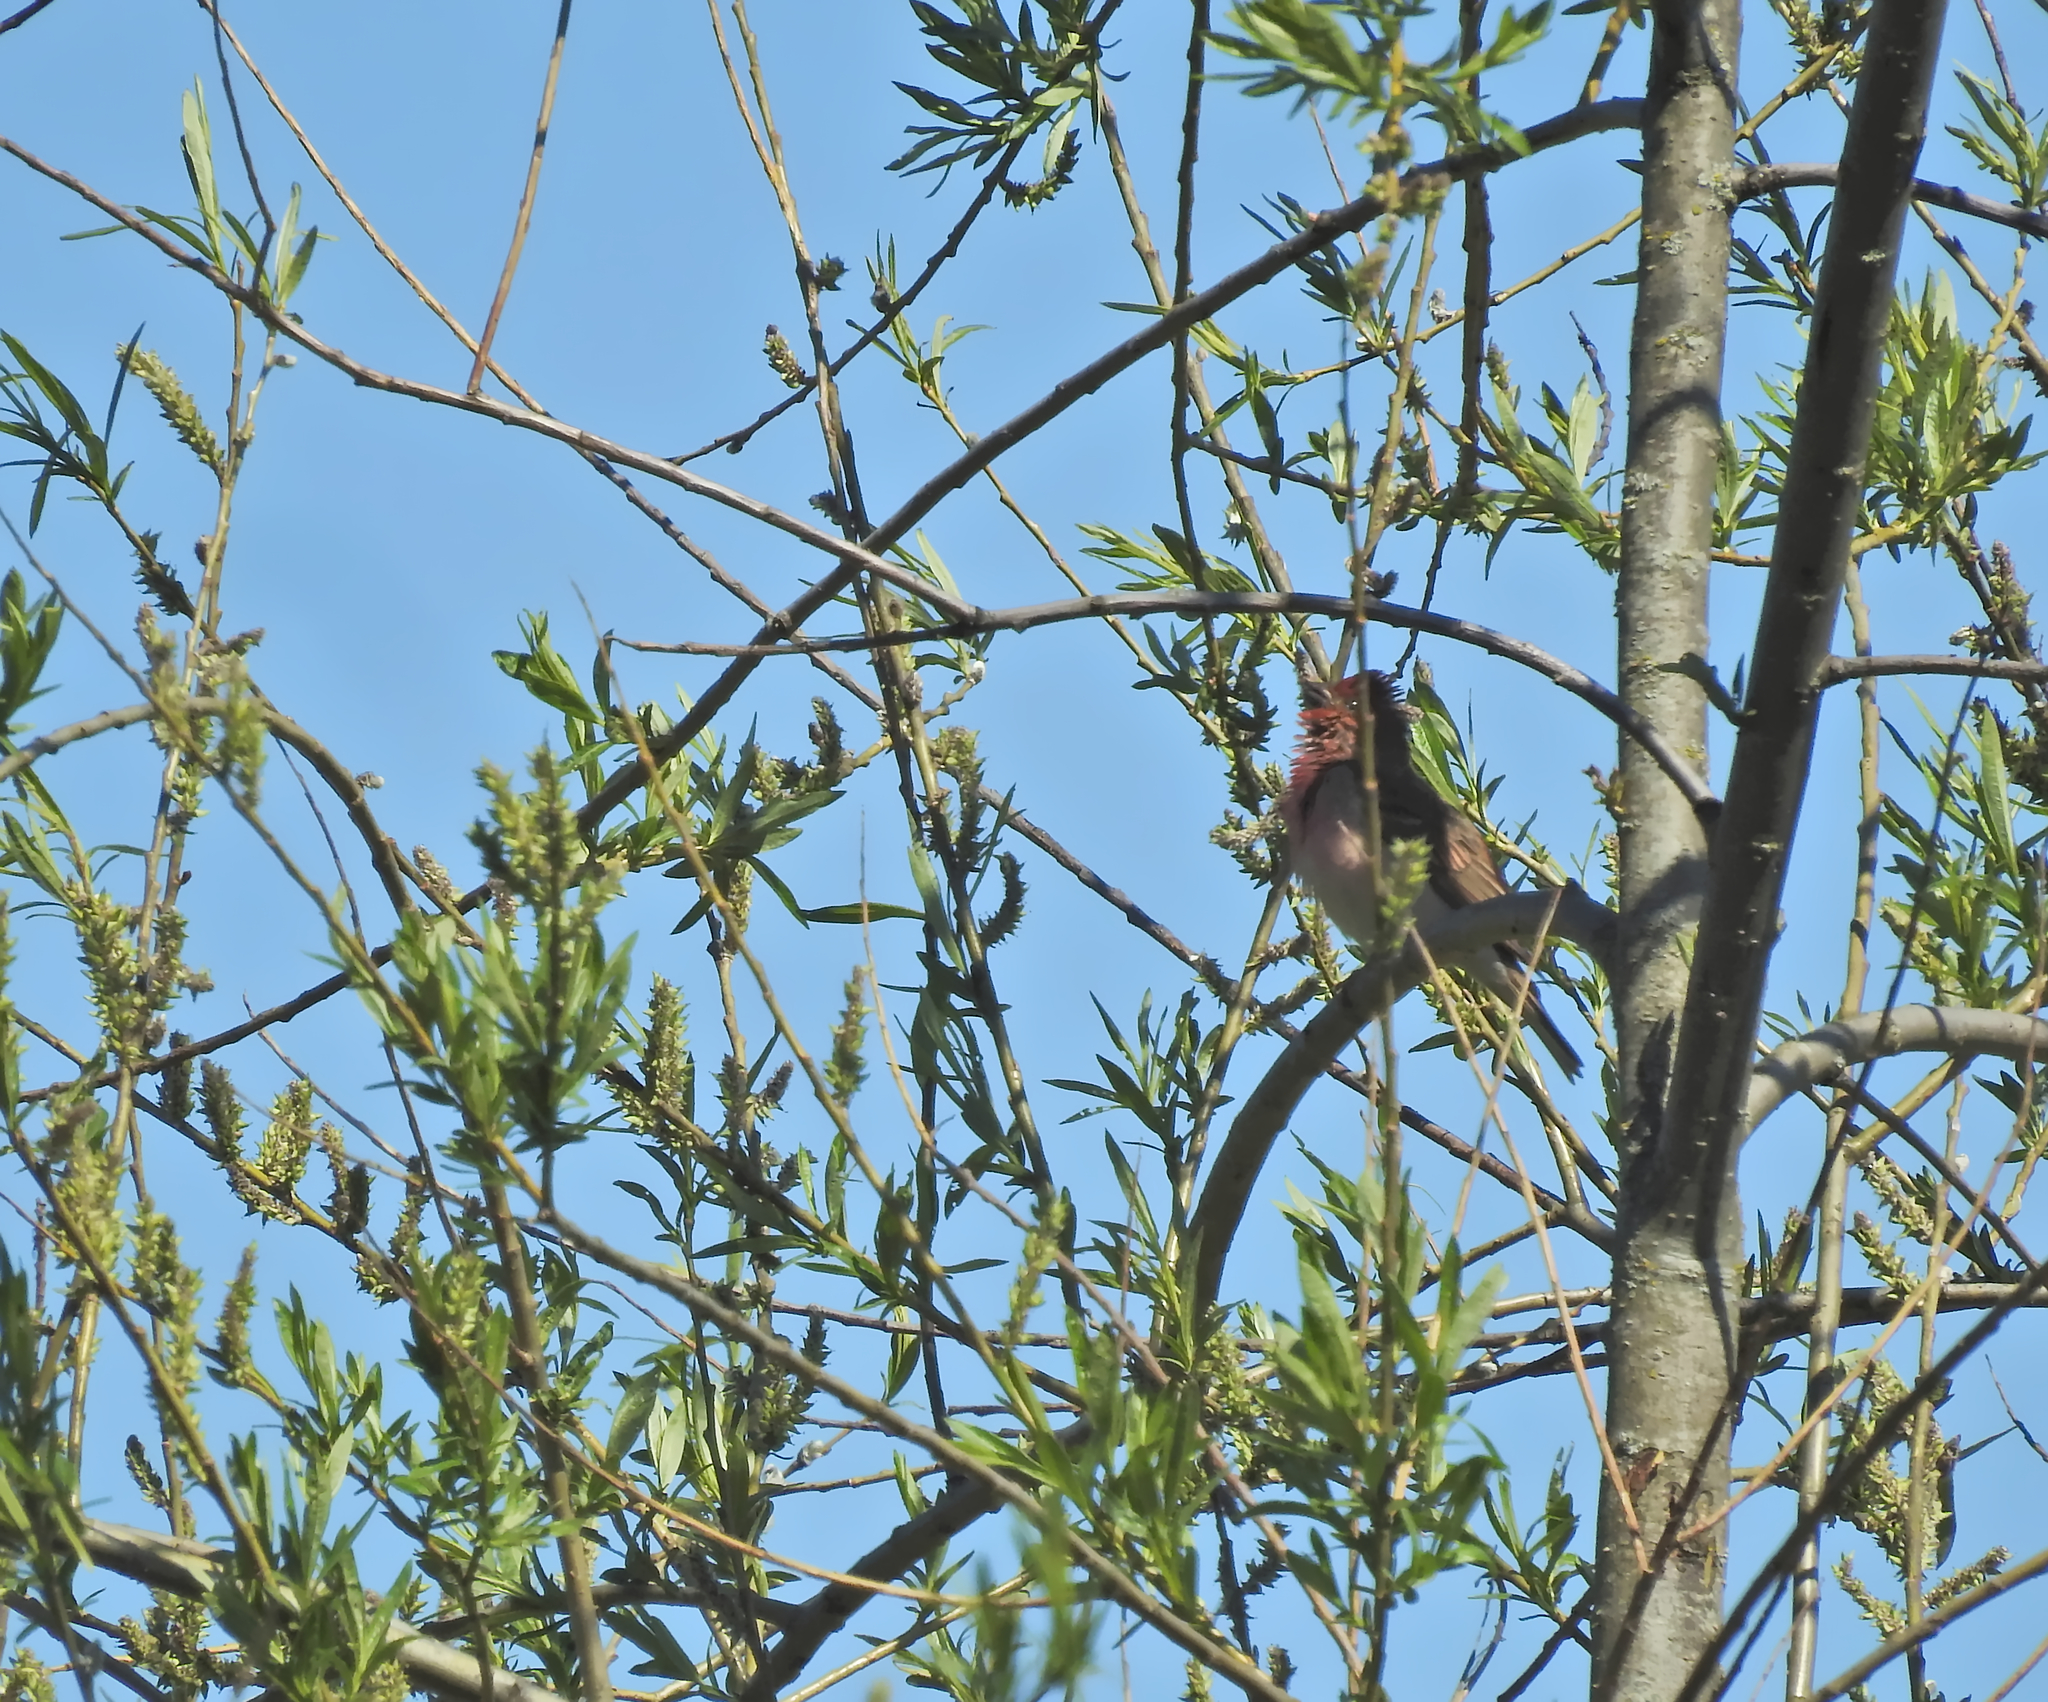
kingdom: Animalia
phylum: Chordata
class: Aves
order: Passeriformes
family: Fringillidae
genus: Carpodacus
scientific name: Carpodacus erythrinus
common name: Common rosefinch
